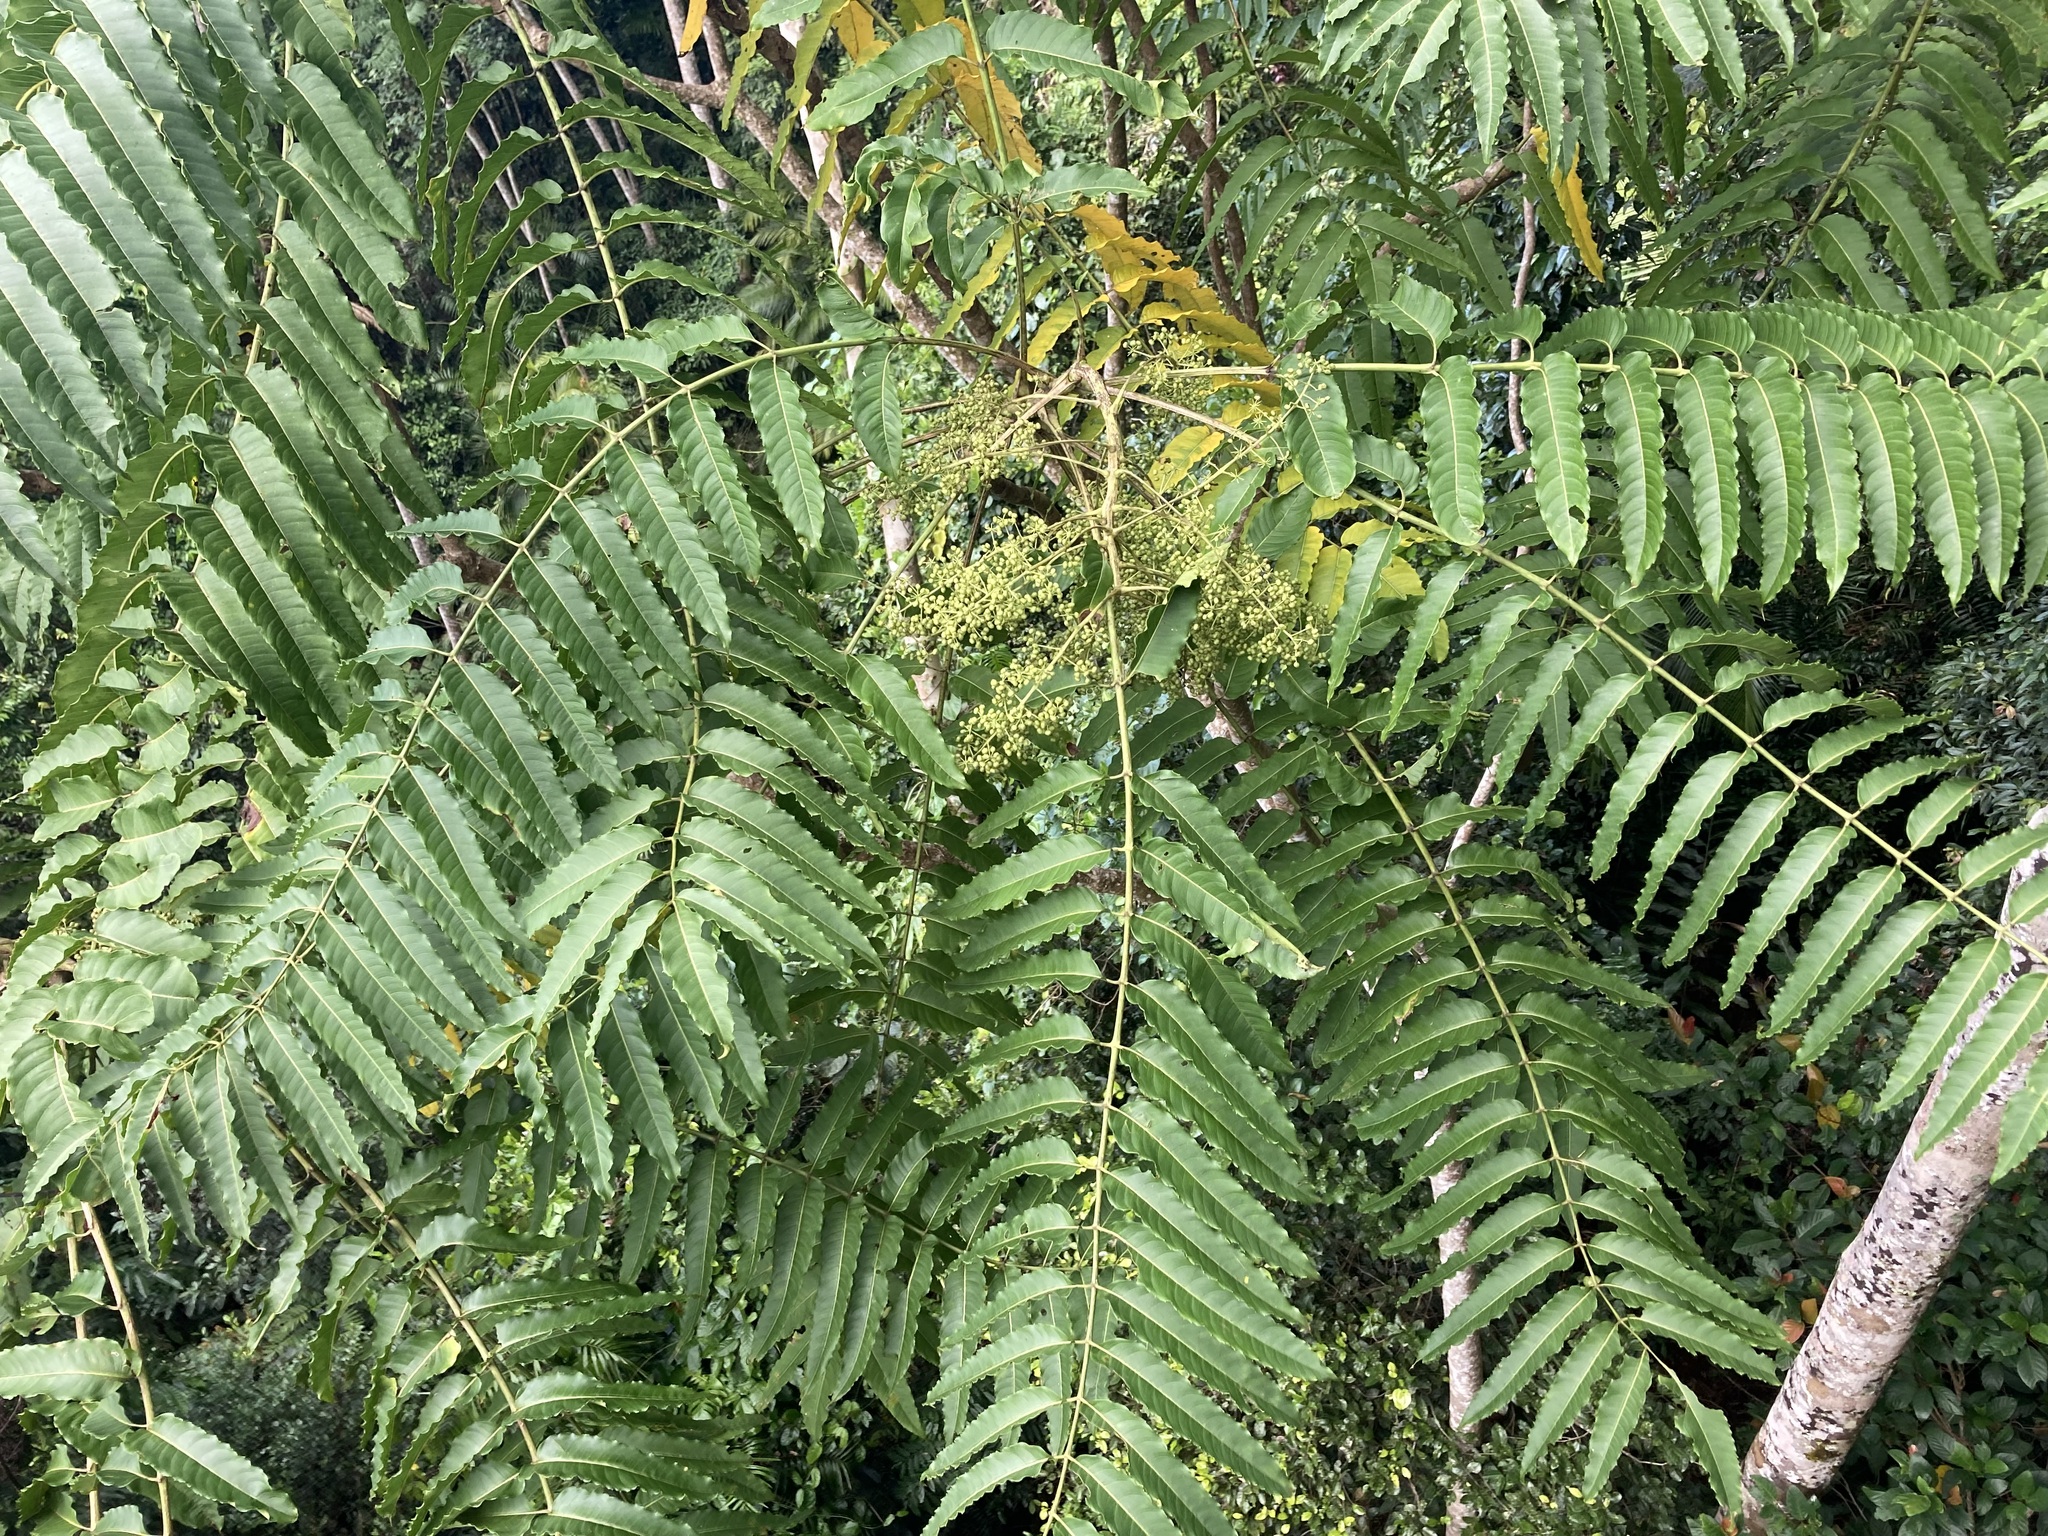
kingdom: Plantae
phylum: Tracheophyta
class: Magnoliopsida
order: Apiales
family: Araliaceae
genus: Polyscias
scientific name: Polyscias murrayi
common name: Pencil cedar
